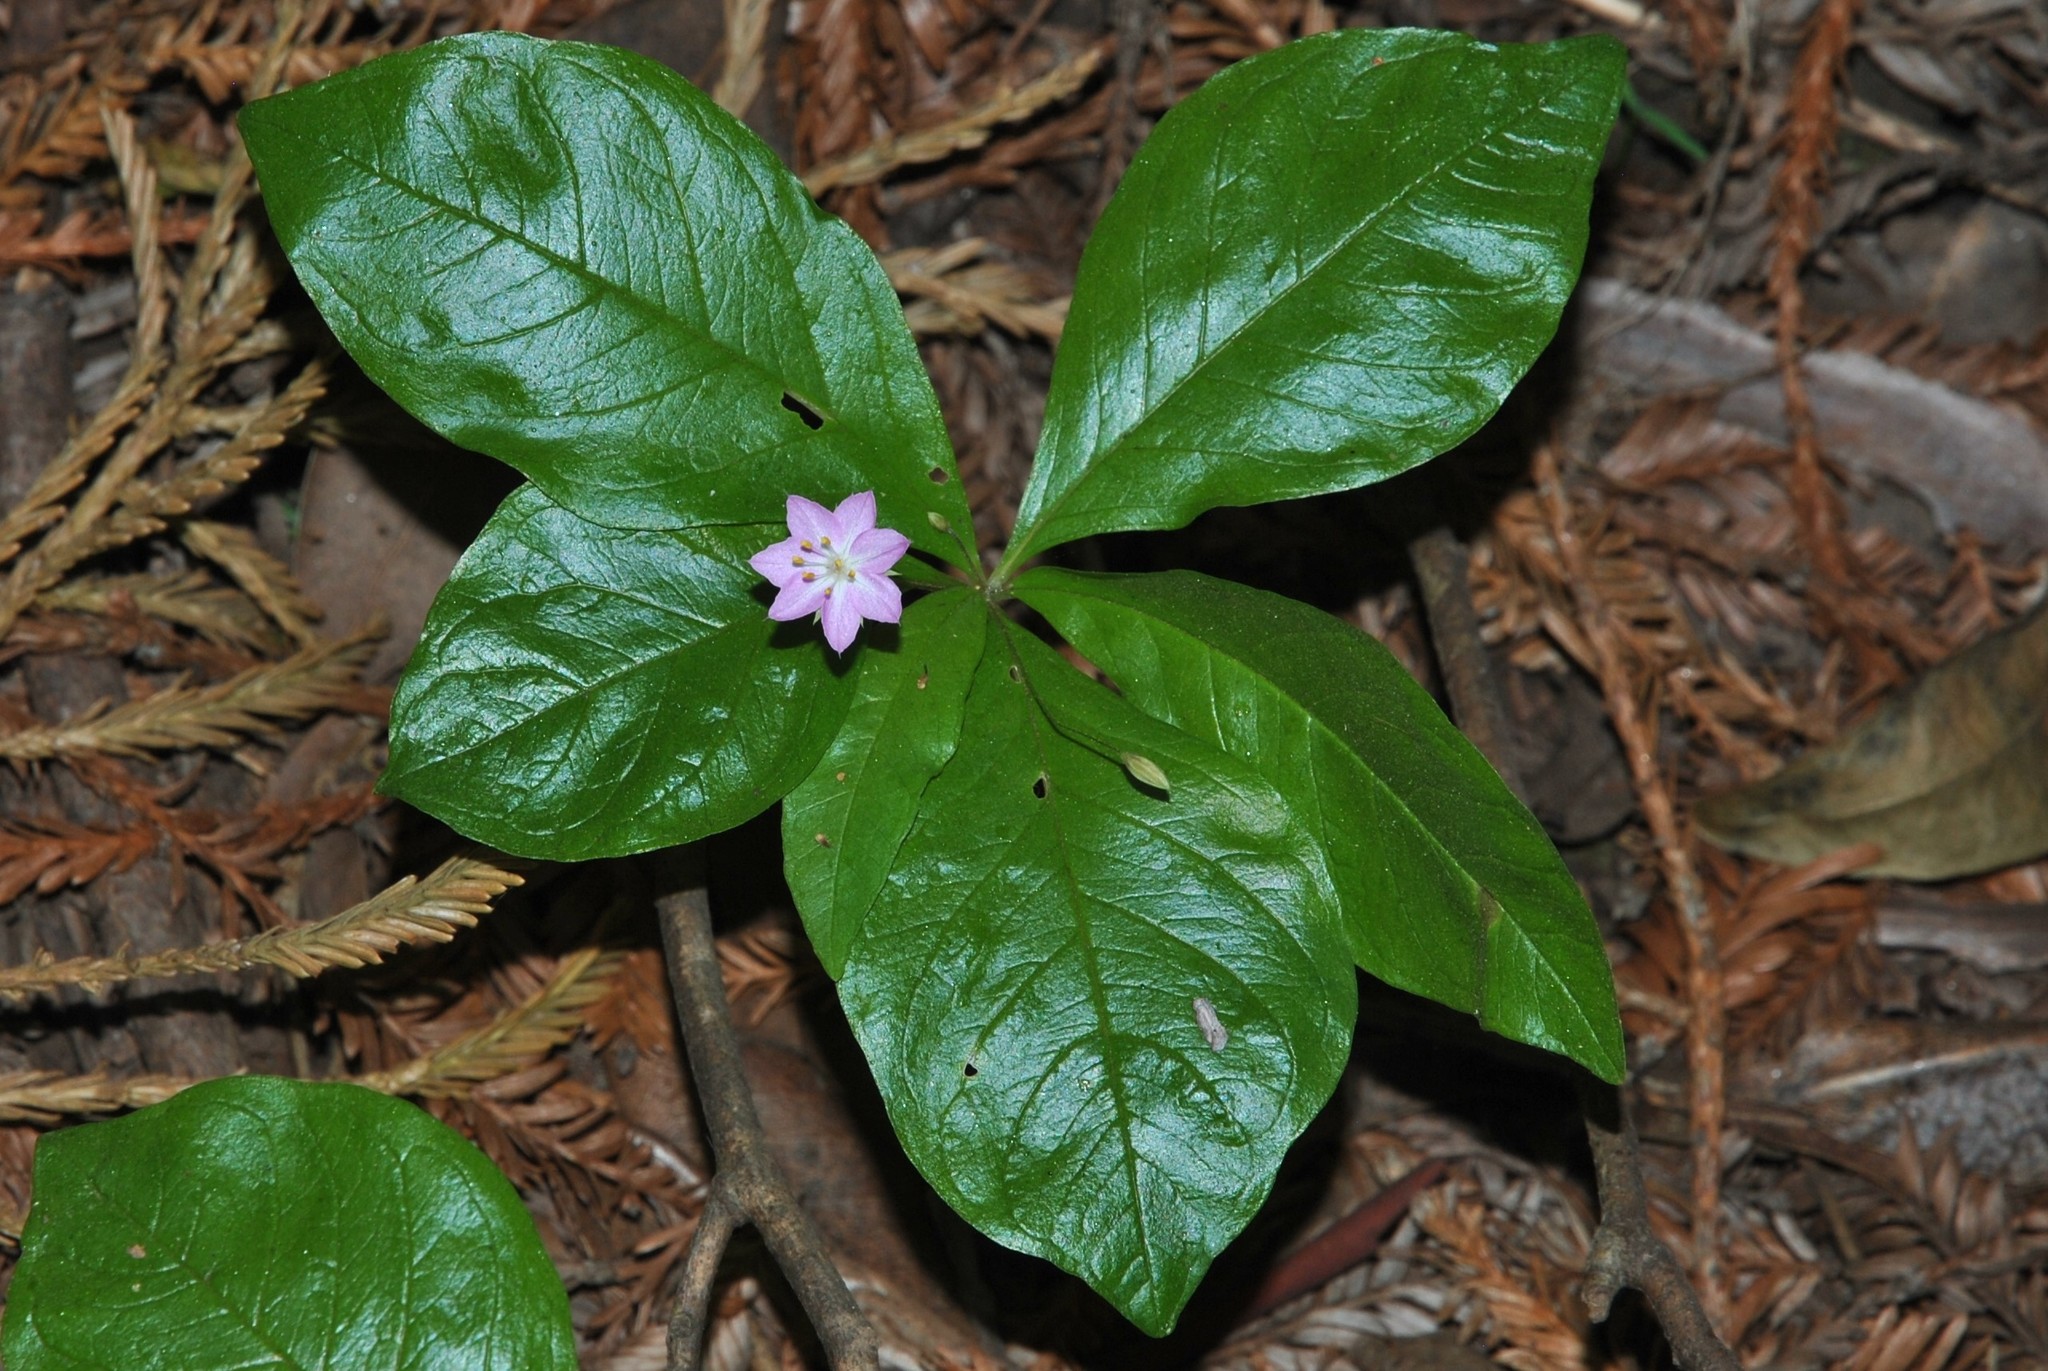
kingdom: Plantae
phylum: Tracheophyta
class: Magnoliopsida
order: Ericales
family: Primulaceae
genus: Lysimachia
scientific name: Lysimachia latifolia
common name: Pacific starflower
